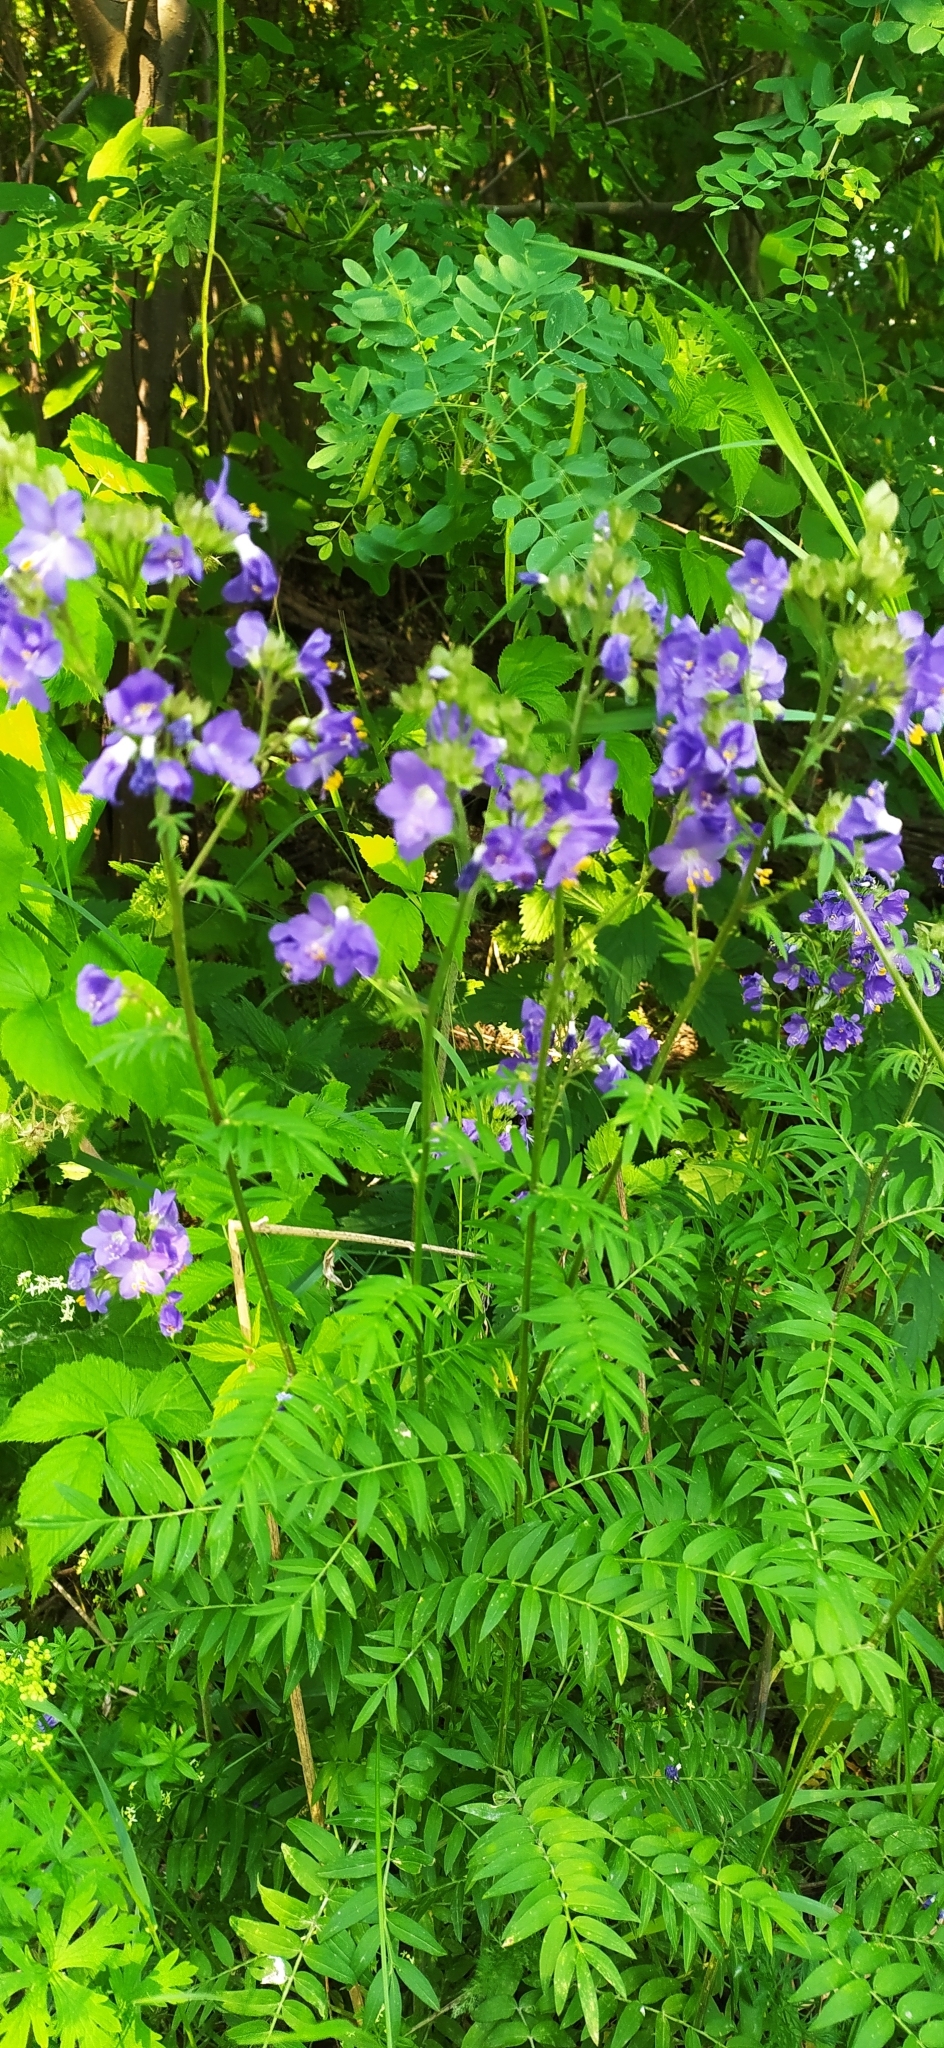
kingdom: Plantae
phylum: Tracheophyta
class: Magnoliopsida
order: Ericales
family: Polemoniaceae
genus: Polemonium
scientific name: Polemonium caeruleum
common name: Jacob's-ladder
